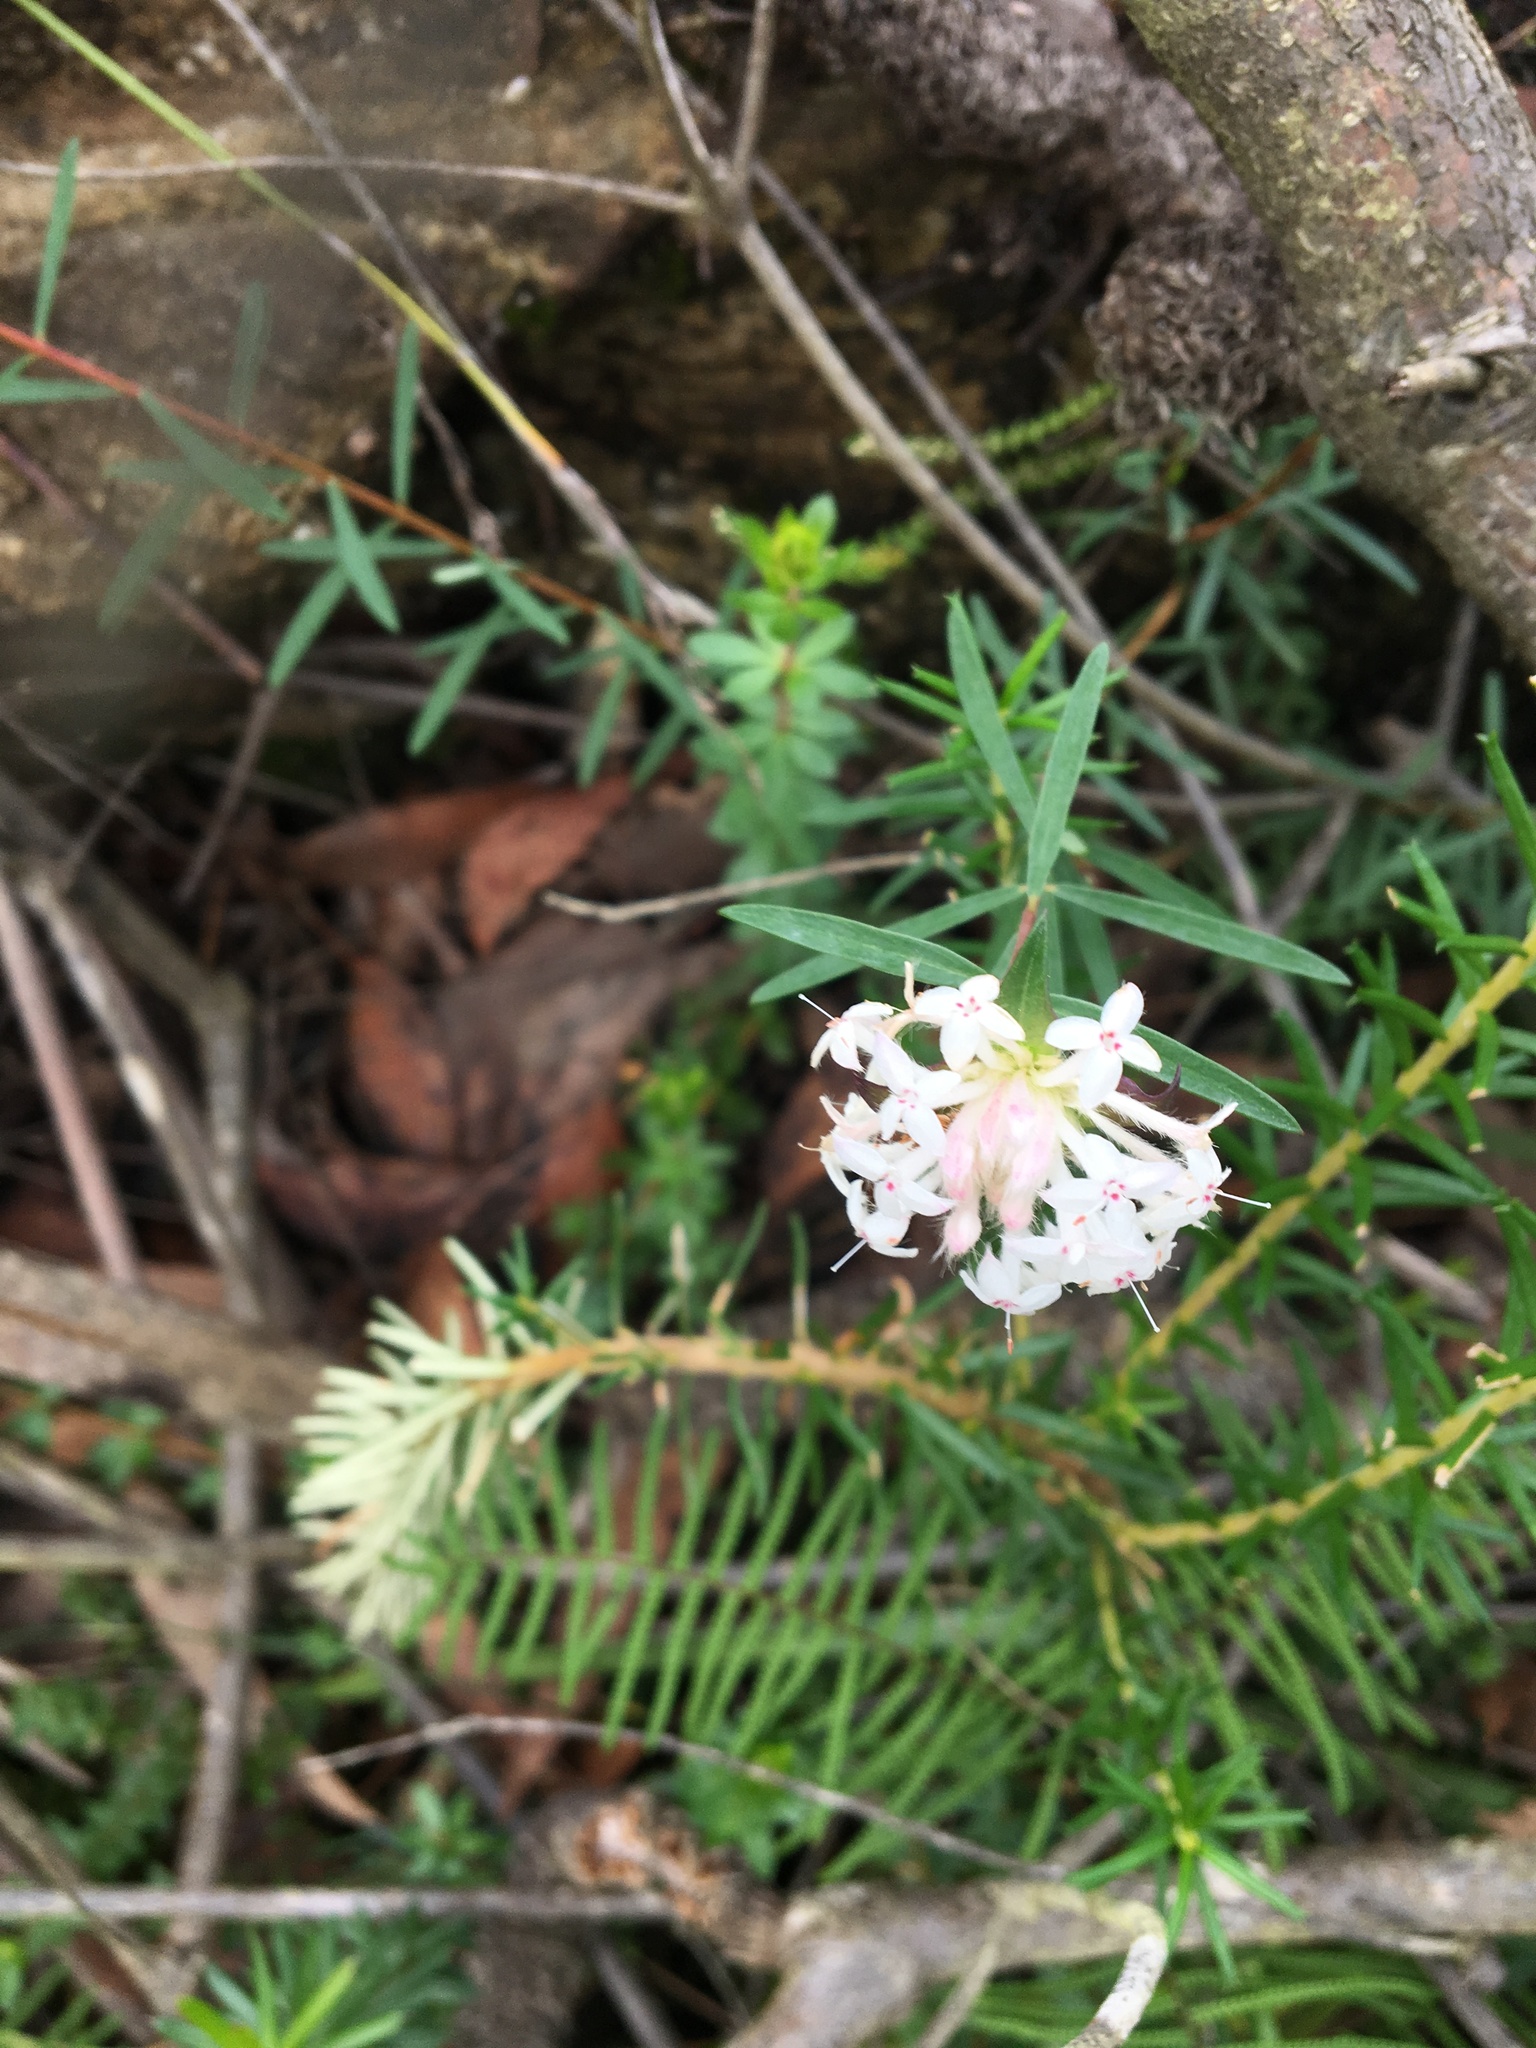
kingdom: Plantae
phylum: Tracheophyta
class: Magnoliopsida
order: Malvales
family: Thymelaeaceae
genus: Pimelea
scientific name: Pimelea linifolia
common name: Queen-of-the-bush
